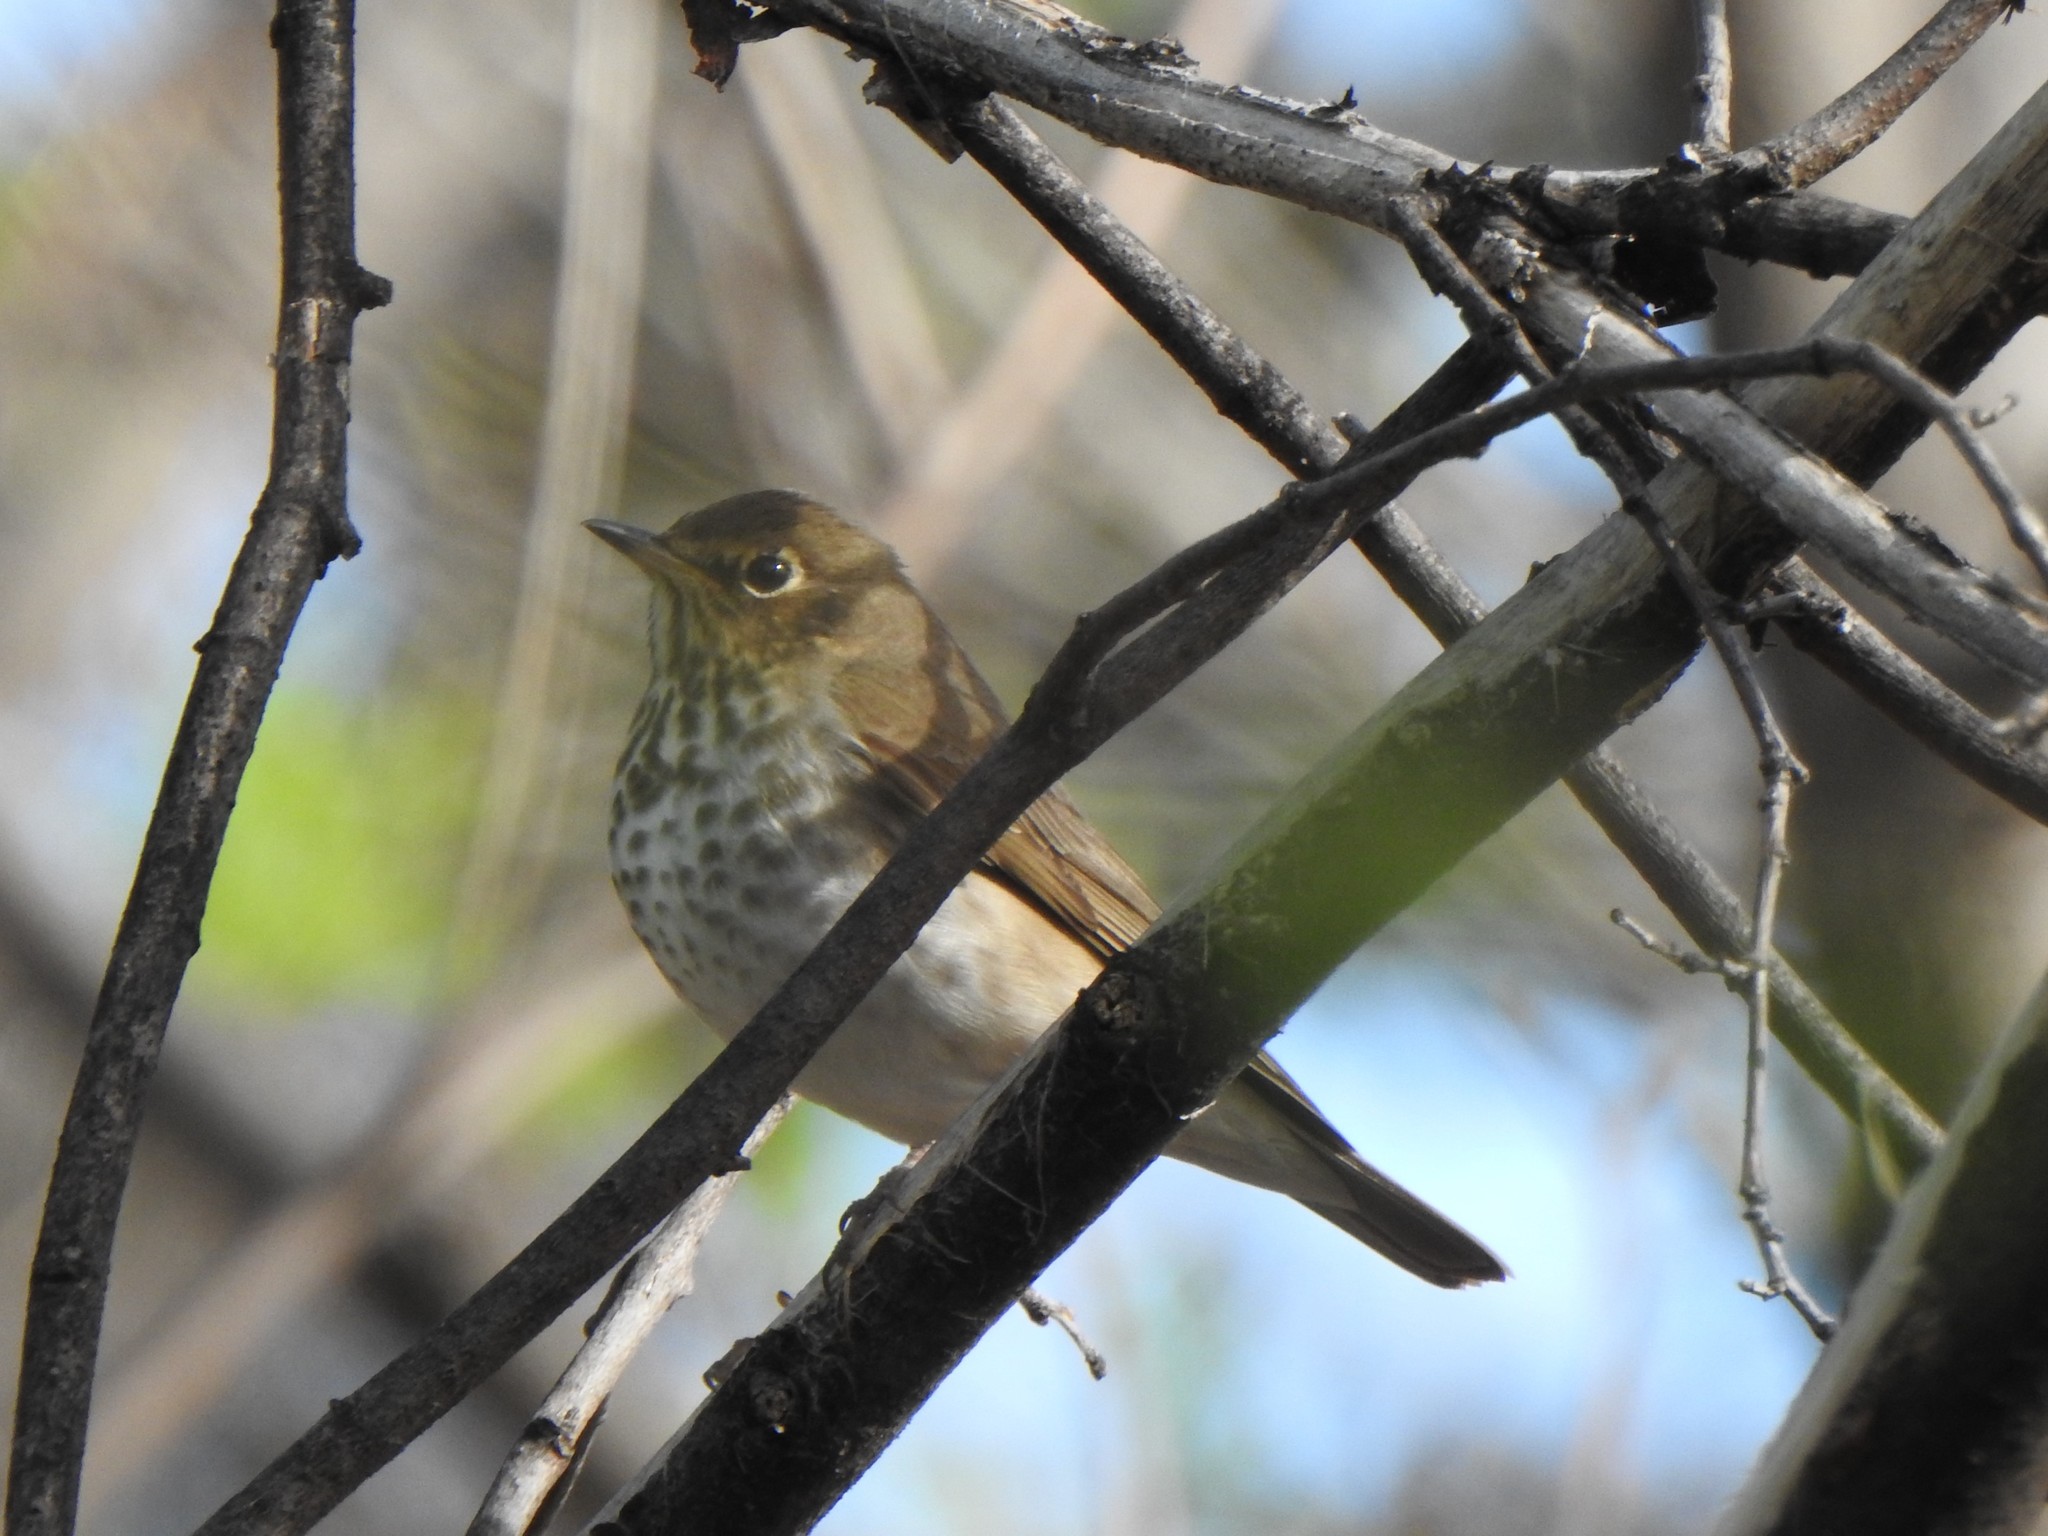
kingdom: Animalia
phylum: Chordata
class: Aves
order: Passeriformes
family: Turdidae
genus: Catharus
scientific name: Catharus ustulatus
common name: Swainson's thrush
